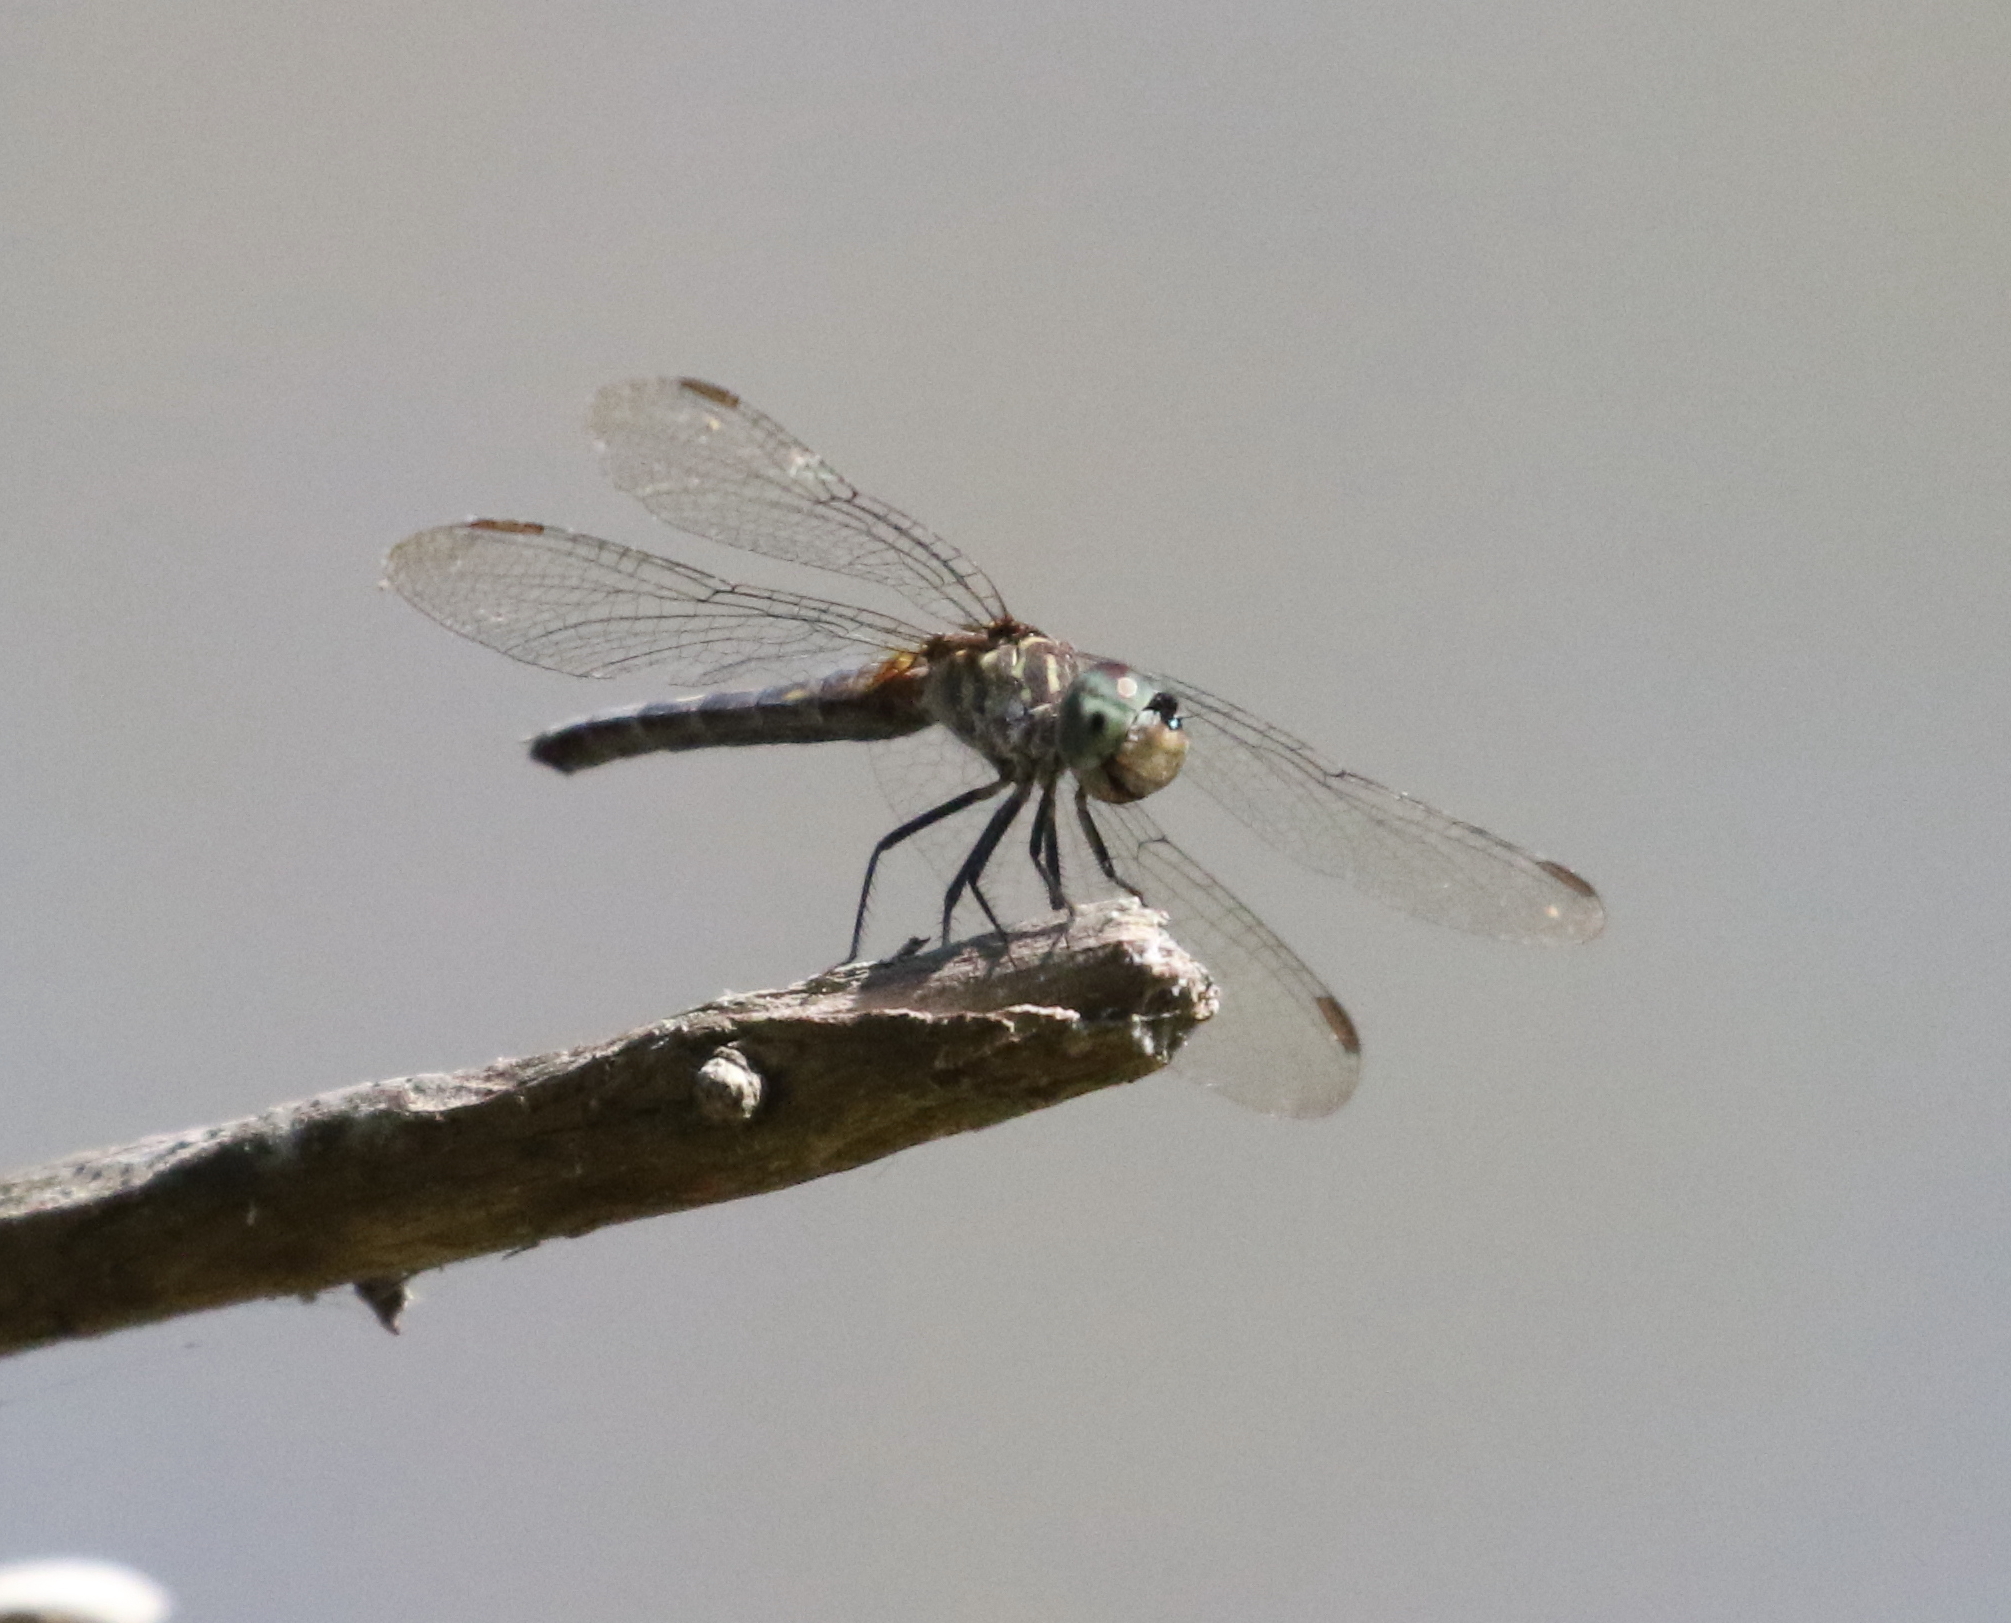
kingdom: Animalia
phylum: Arthropoda
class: Insecta
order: Odonata
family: Libellulidae
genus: Pachydiplax
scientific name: Pachydiplax longipennis
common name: Blue dasher
